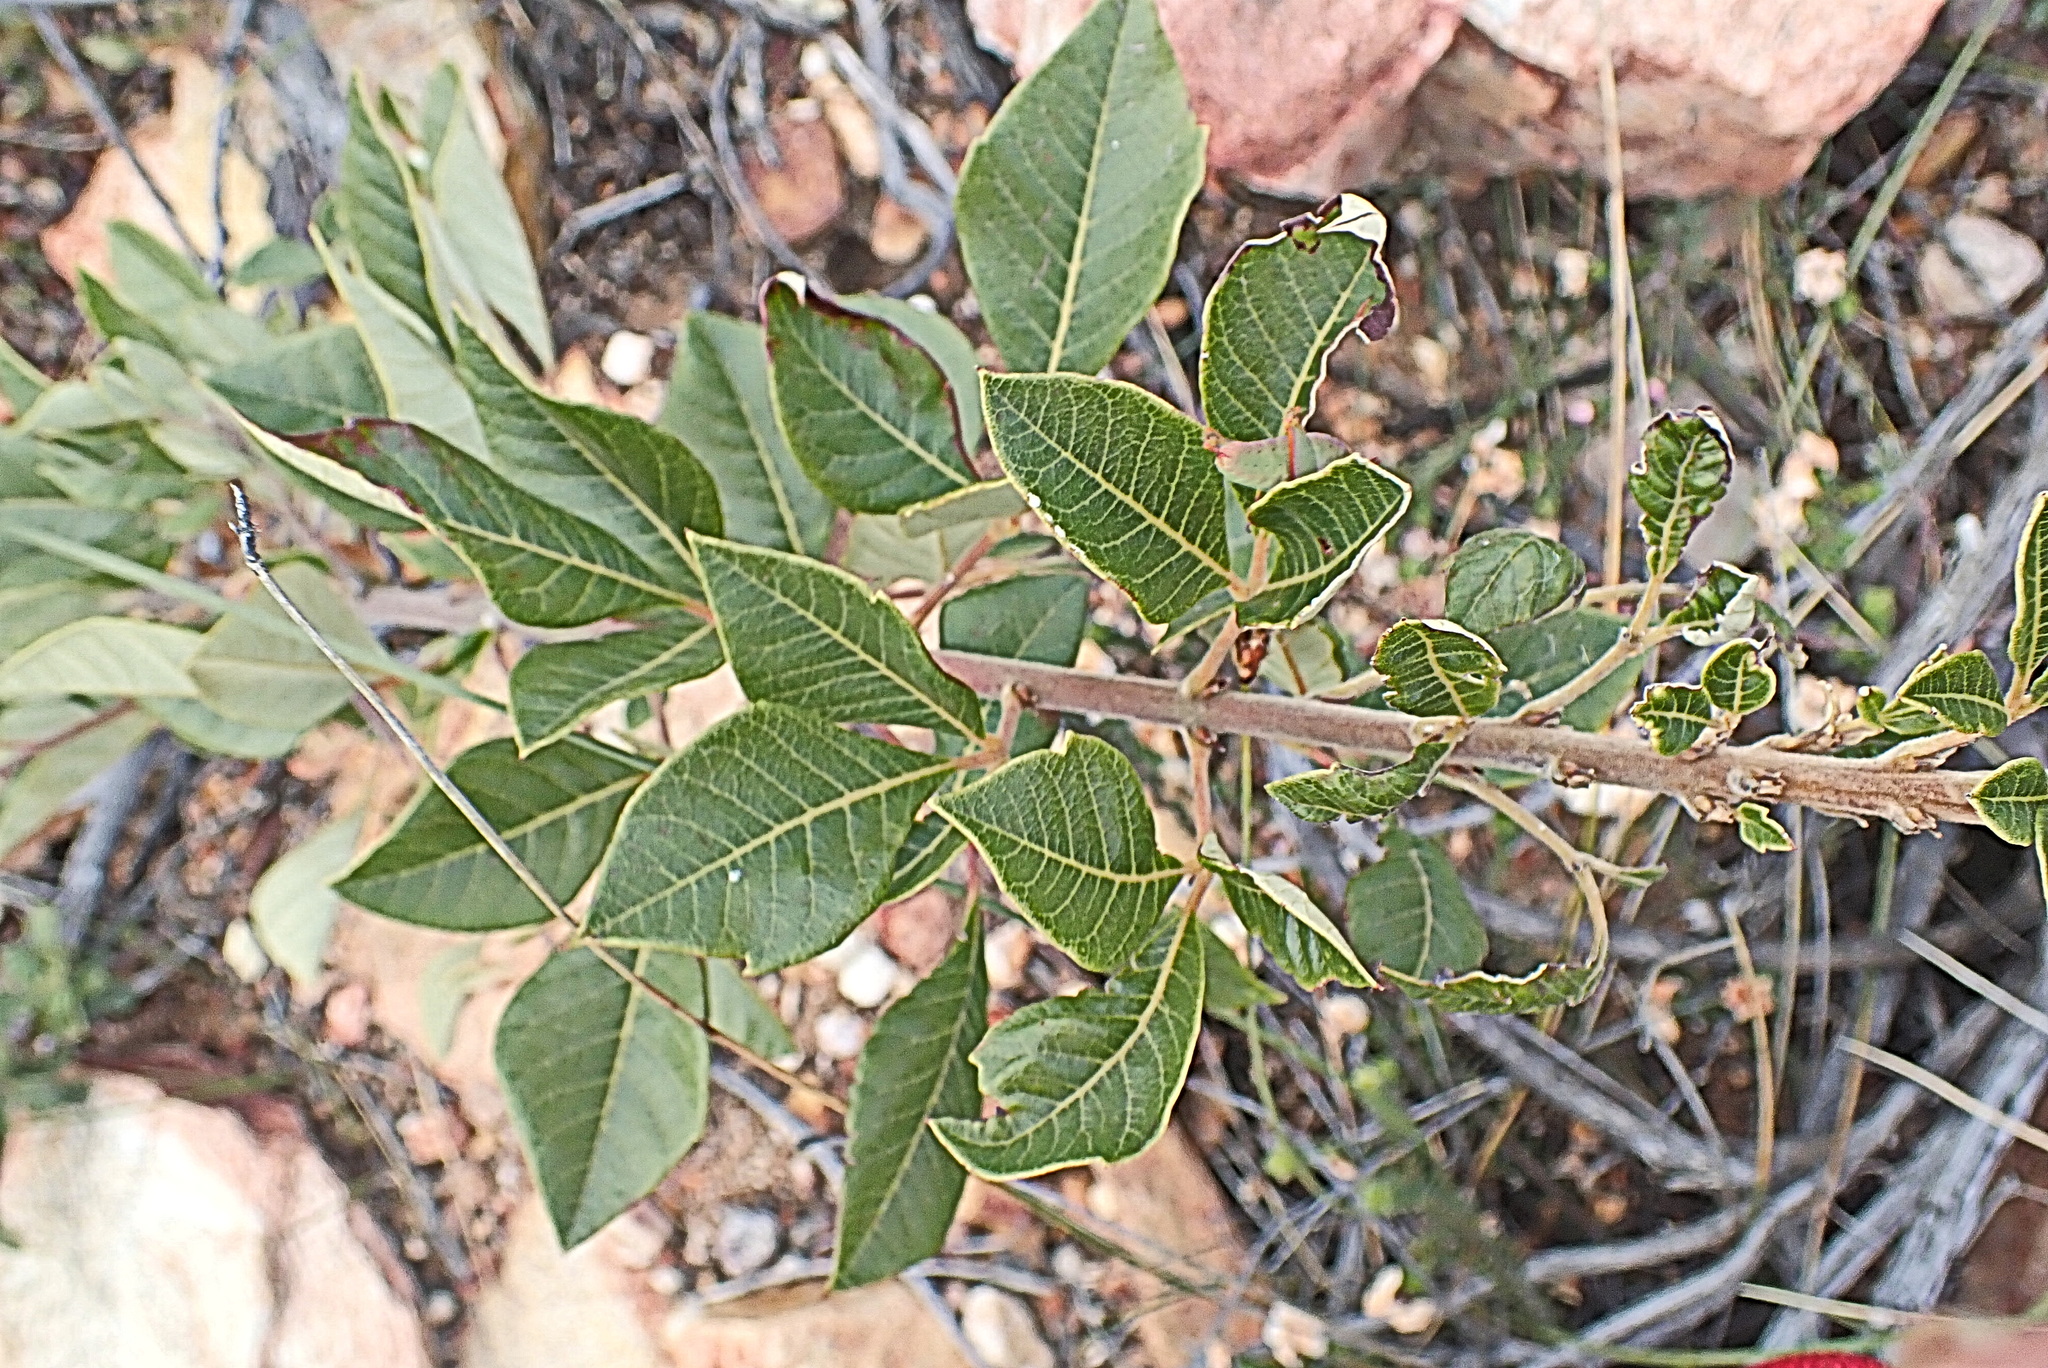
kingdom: Plantae
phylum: Tracheophyta
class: Magnoliopsida
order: Sapindales
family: Anacardiaceae
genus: Searsia
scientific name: Searsia tomentosa
